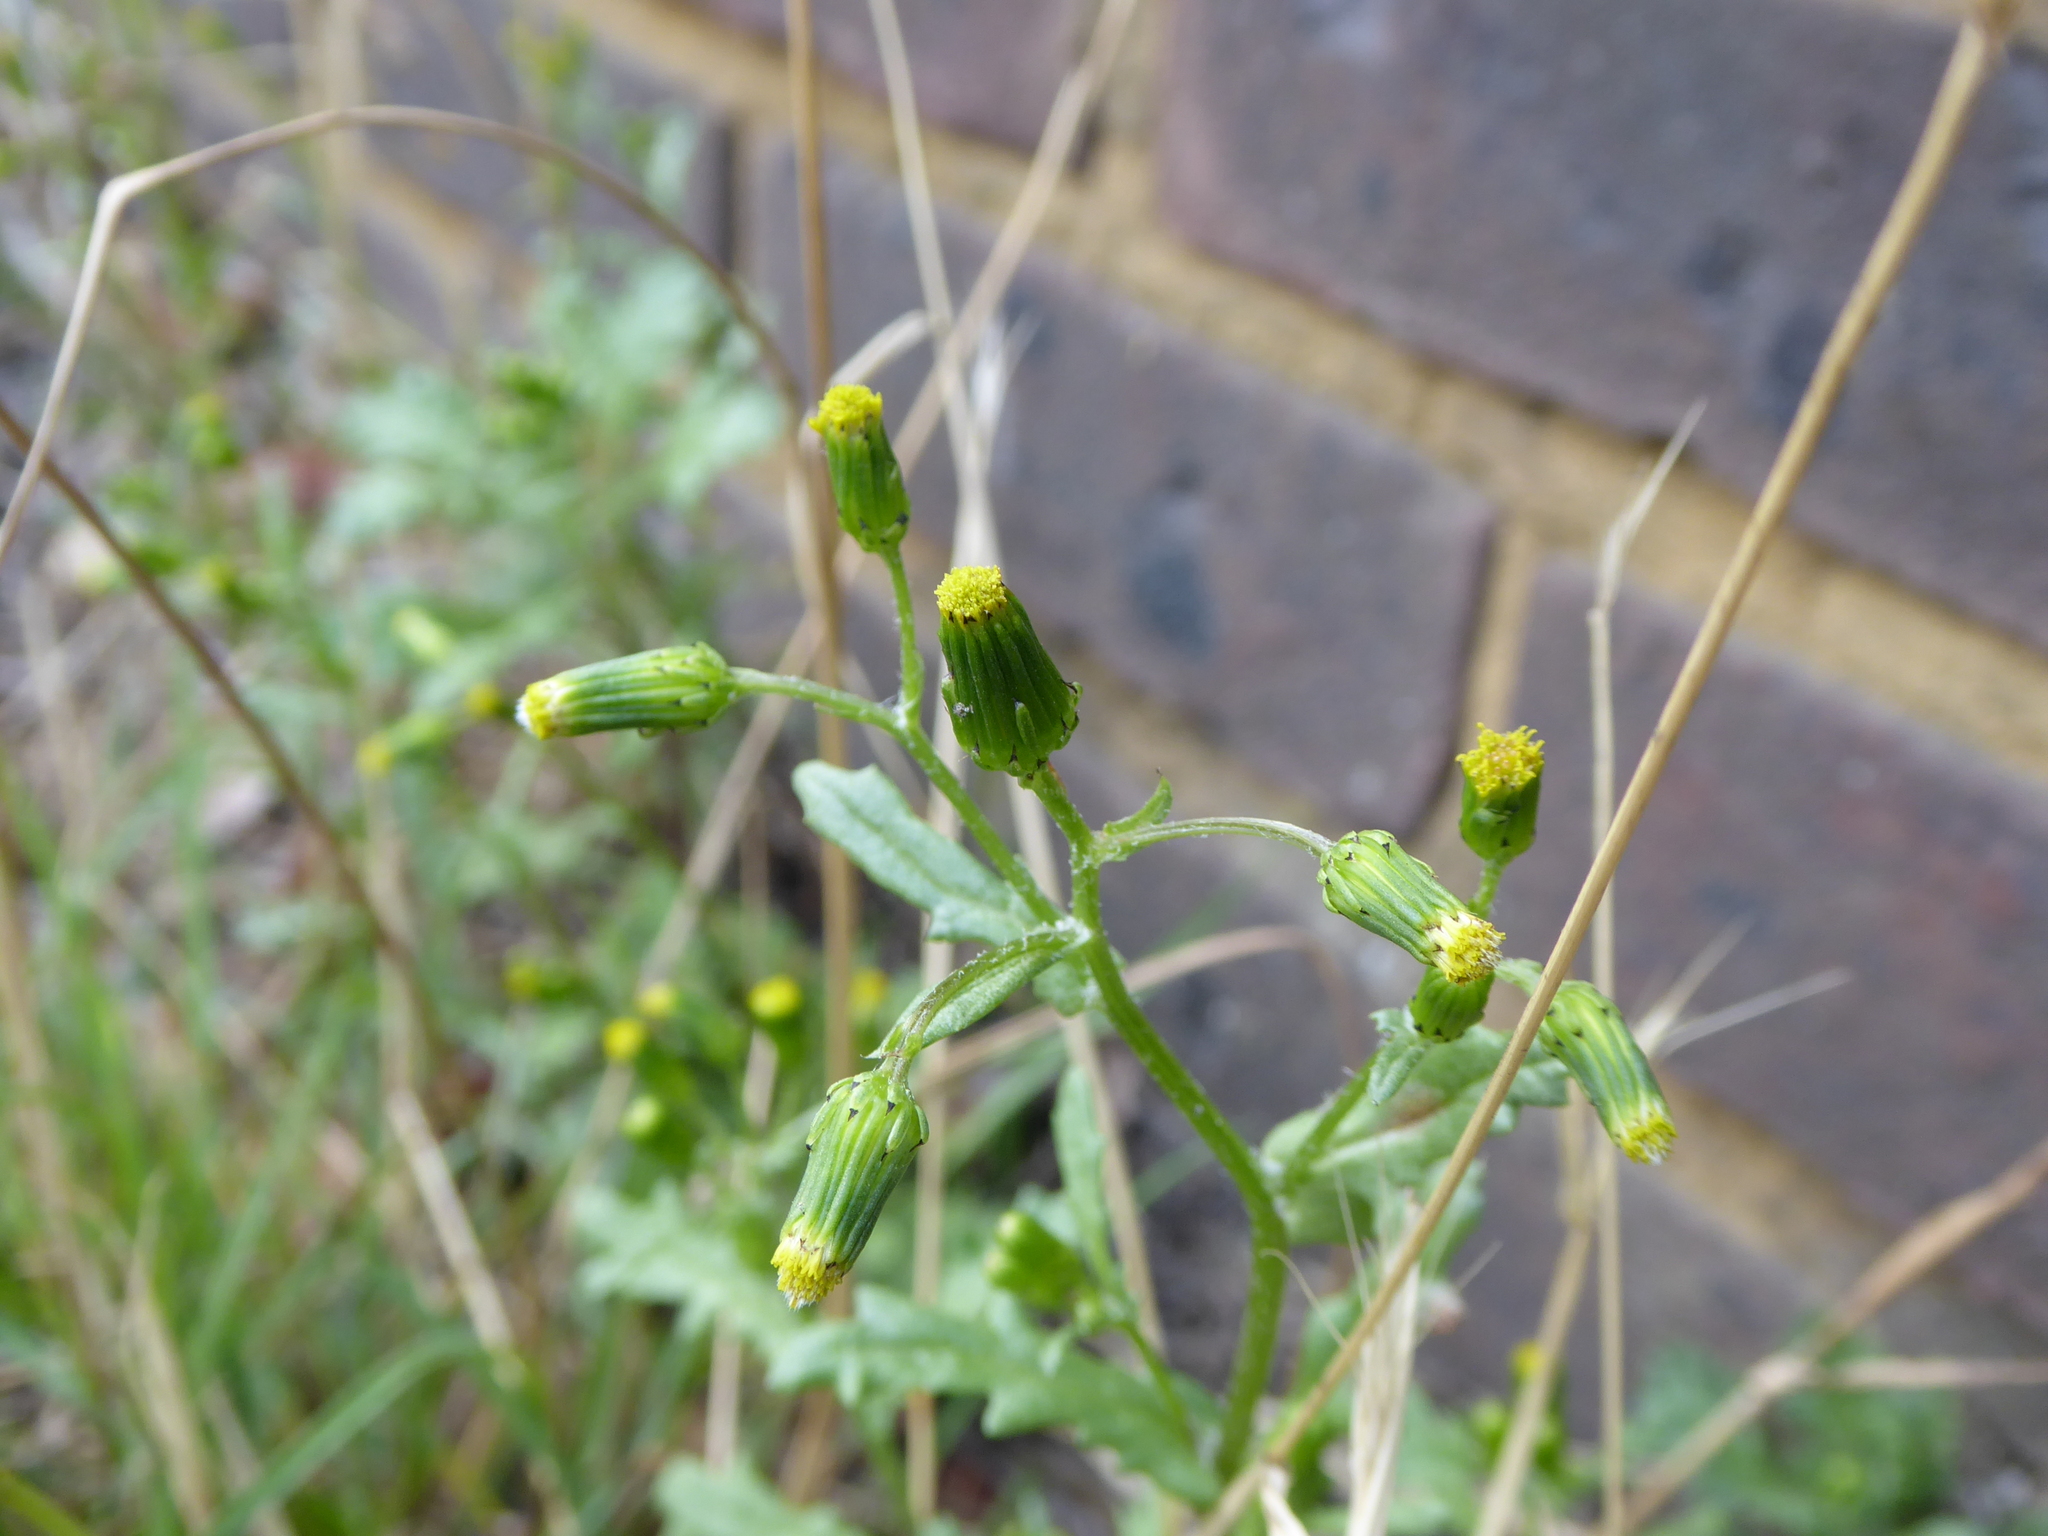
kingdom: Plantae
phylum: Tracheophyta
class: Magnoliopsida
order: Asterales
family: Asteraceae
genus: Senecio
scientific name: Senecio vulgaris
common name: Old-man-in-the-spring
